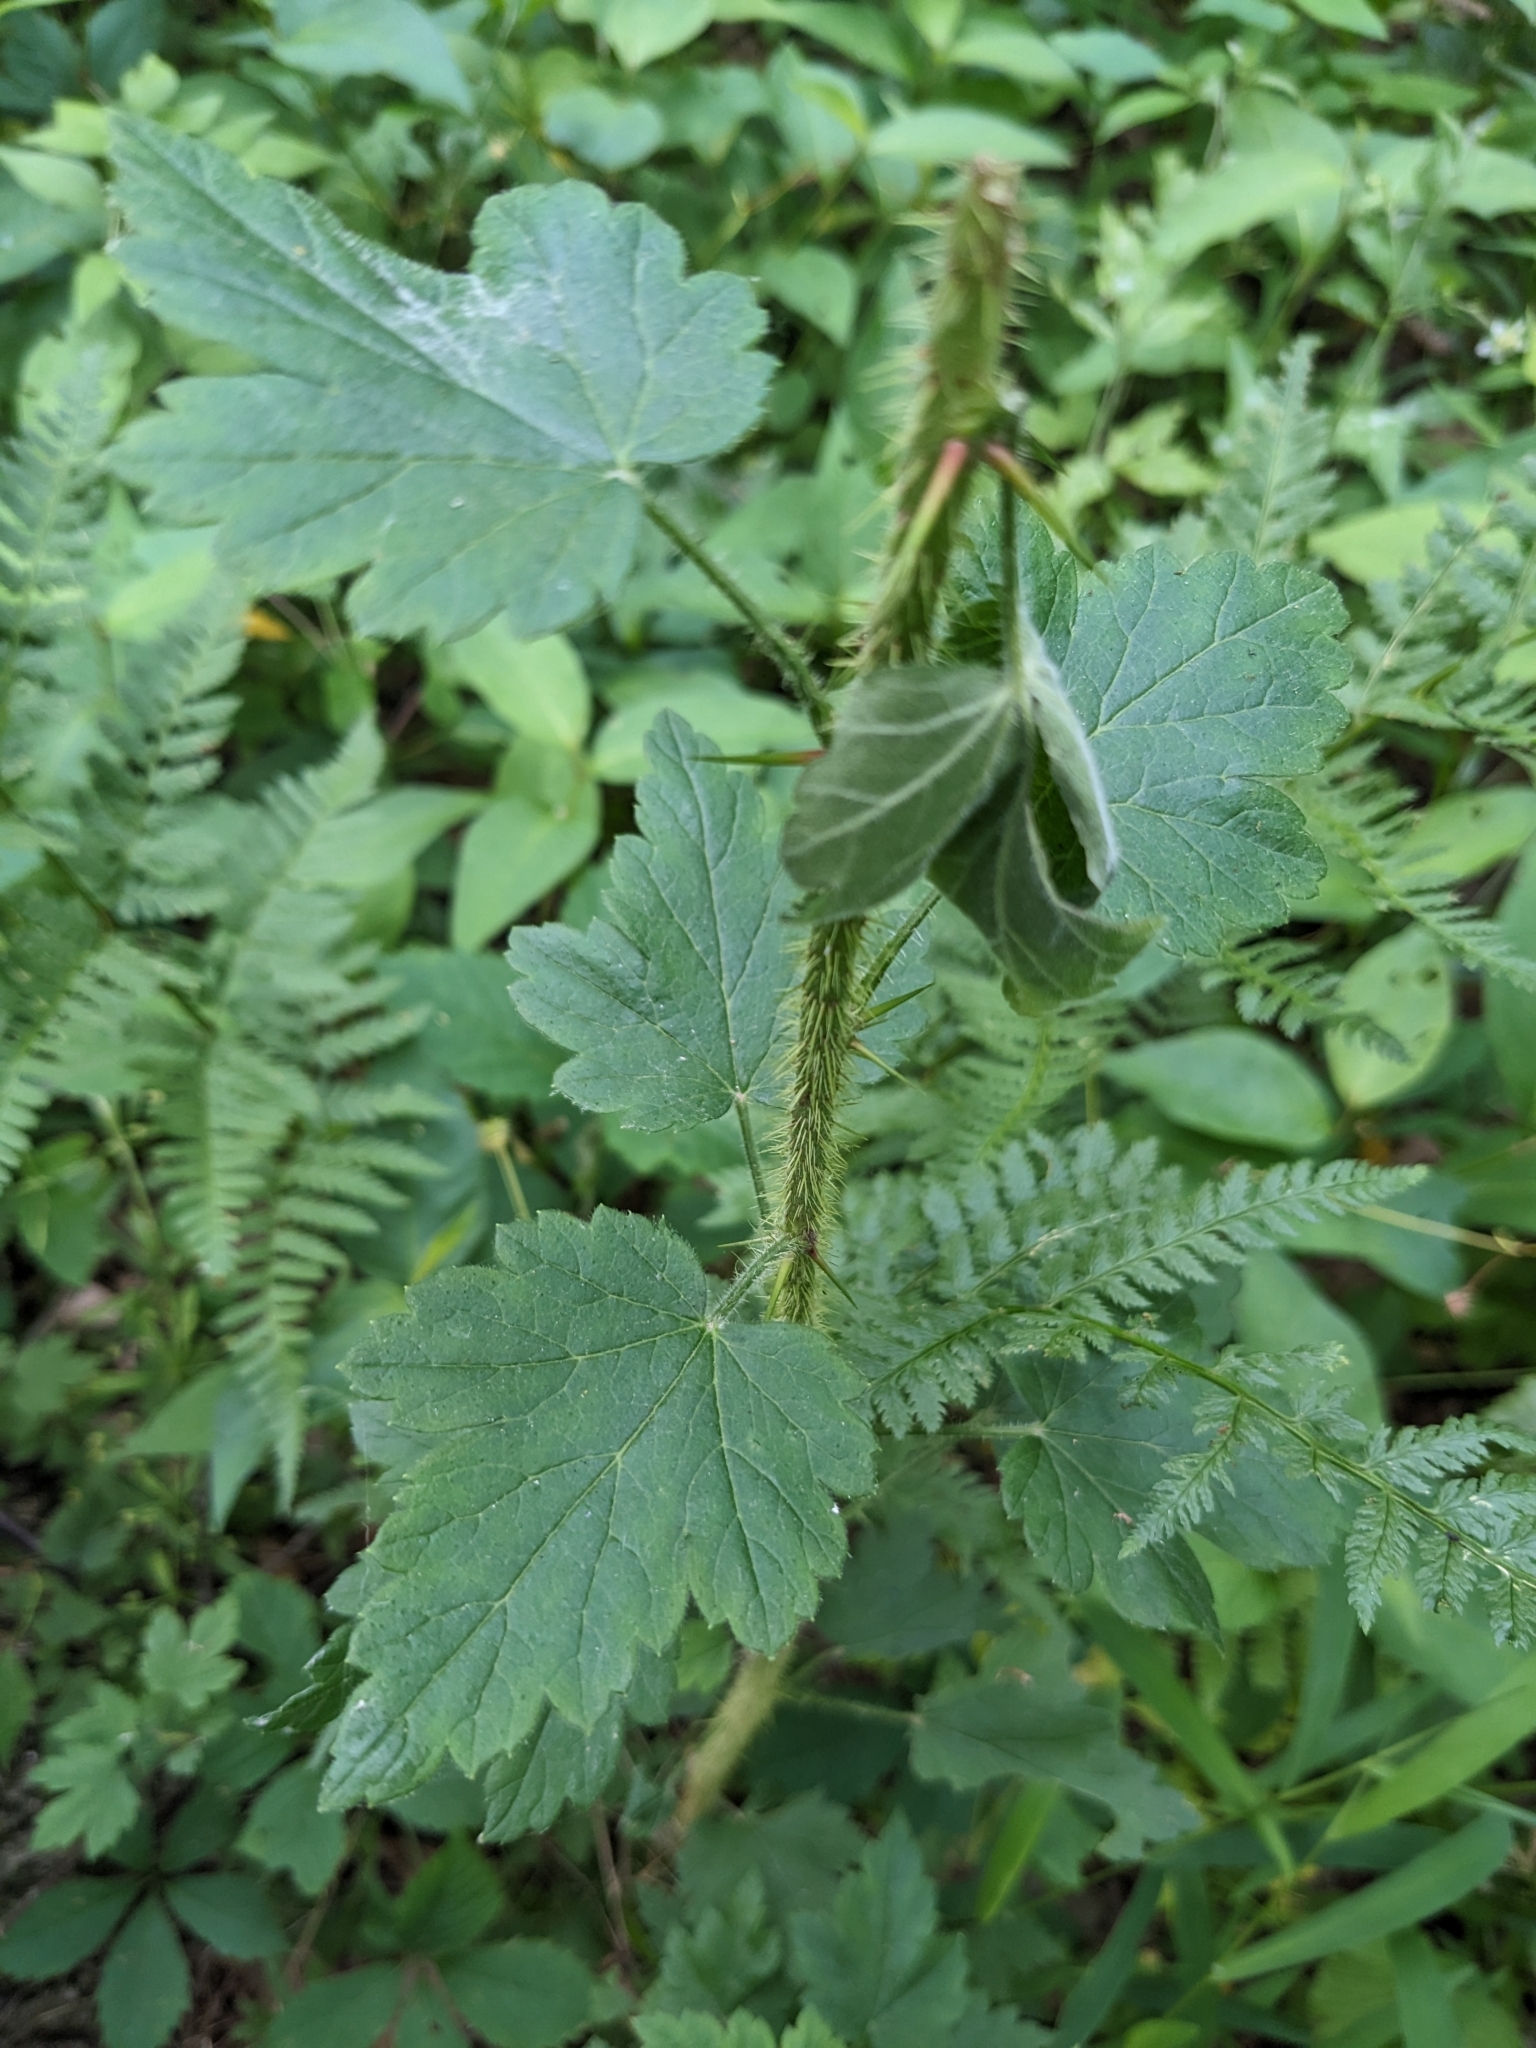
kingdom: Plantae
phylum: Tracheophyta
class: Magnoliopsida
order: Saxifragales
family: Grossulariaceae
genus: Ribes
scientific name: Ribes cynosbati
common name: American gooseberry
